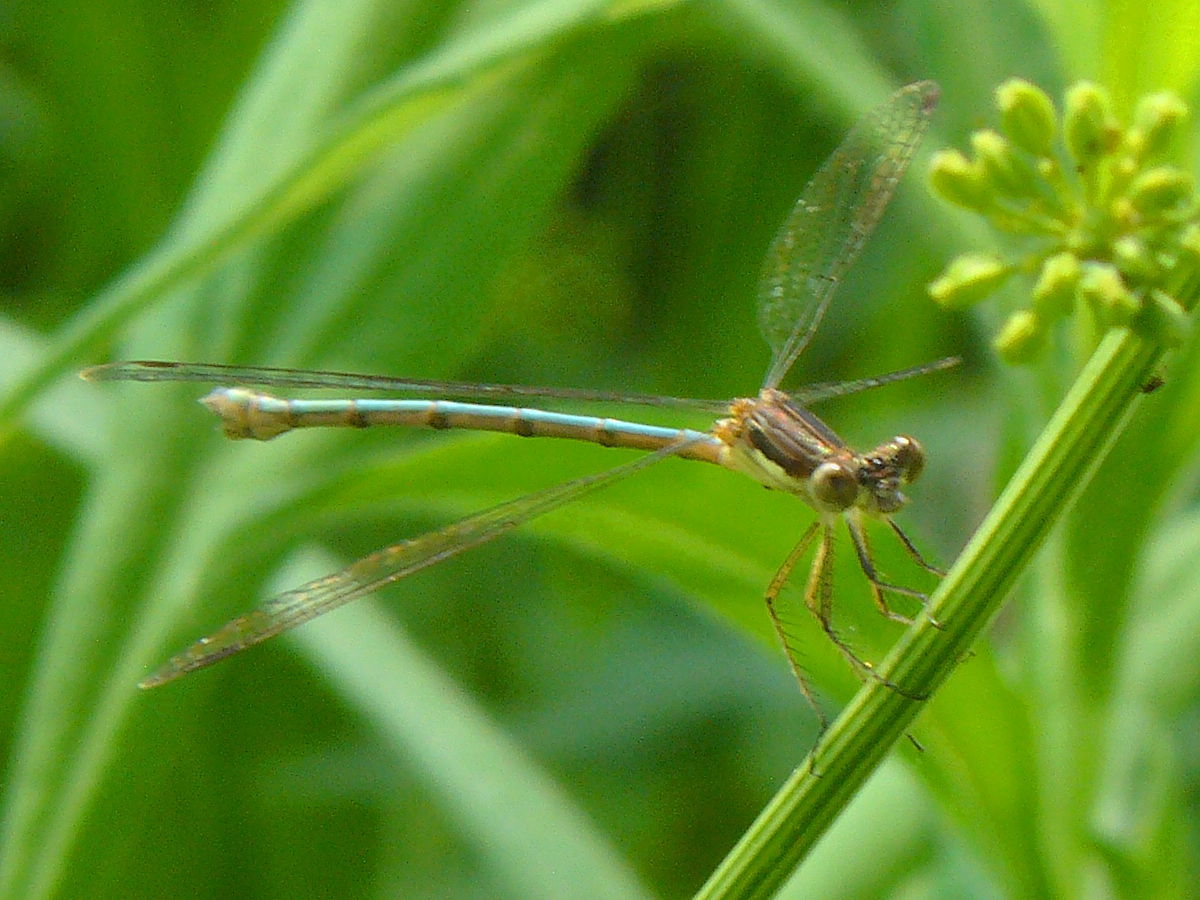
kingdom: Animalia
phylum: Arthropoda
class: Insecta
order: Odonata
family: Lestidae
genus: Lestes
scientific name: Lestes congener
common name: Spotted spreadwing
